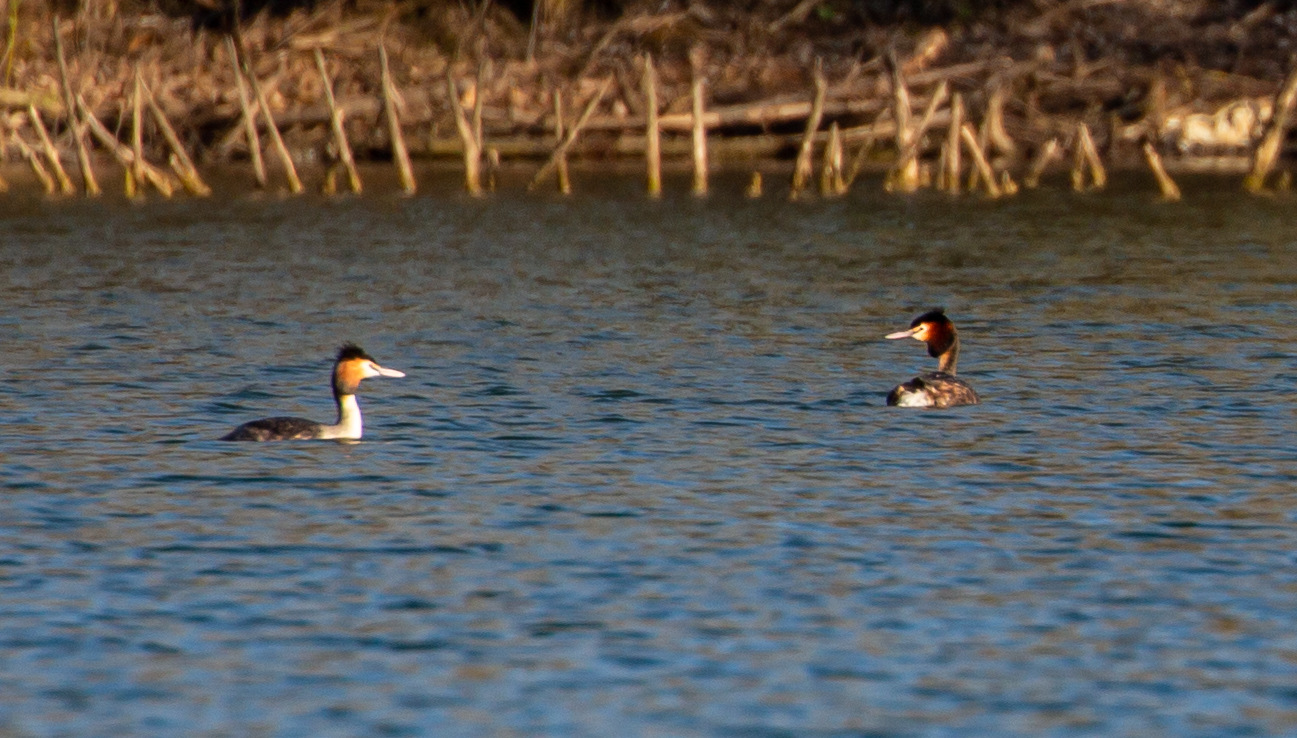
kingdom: Animalia
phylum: Chordata
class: Aves
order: Podicipediformes
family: Podicipedidae
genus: Podiceps
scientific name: Podiceps cristatus
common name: Great crested grebe
